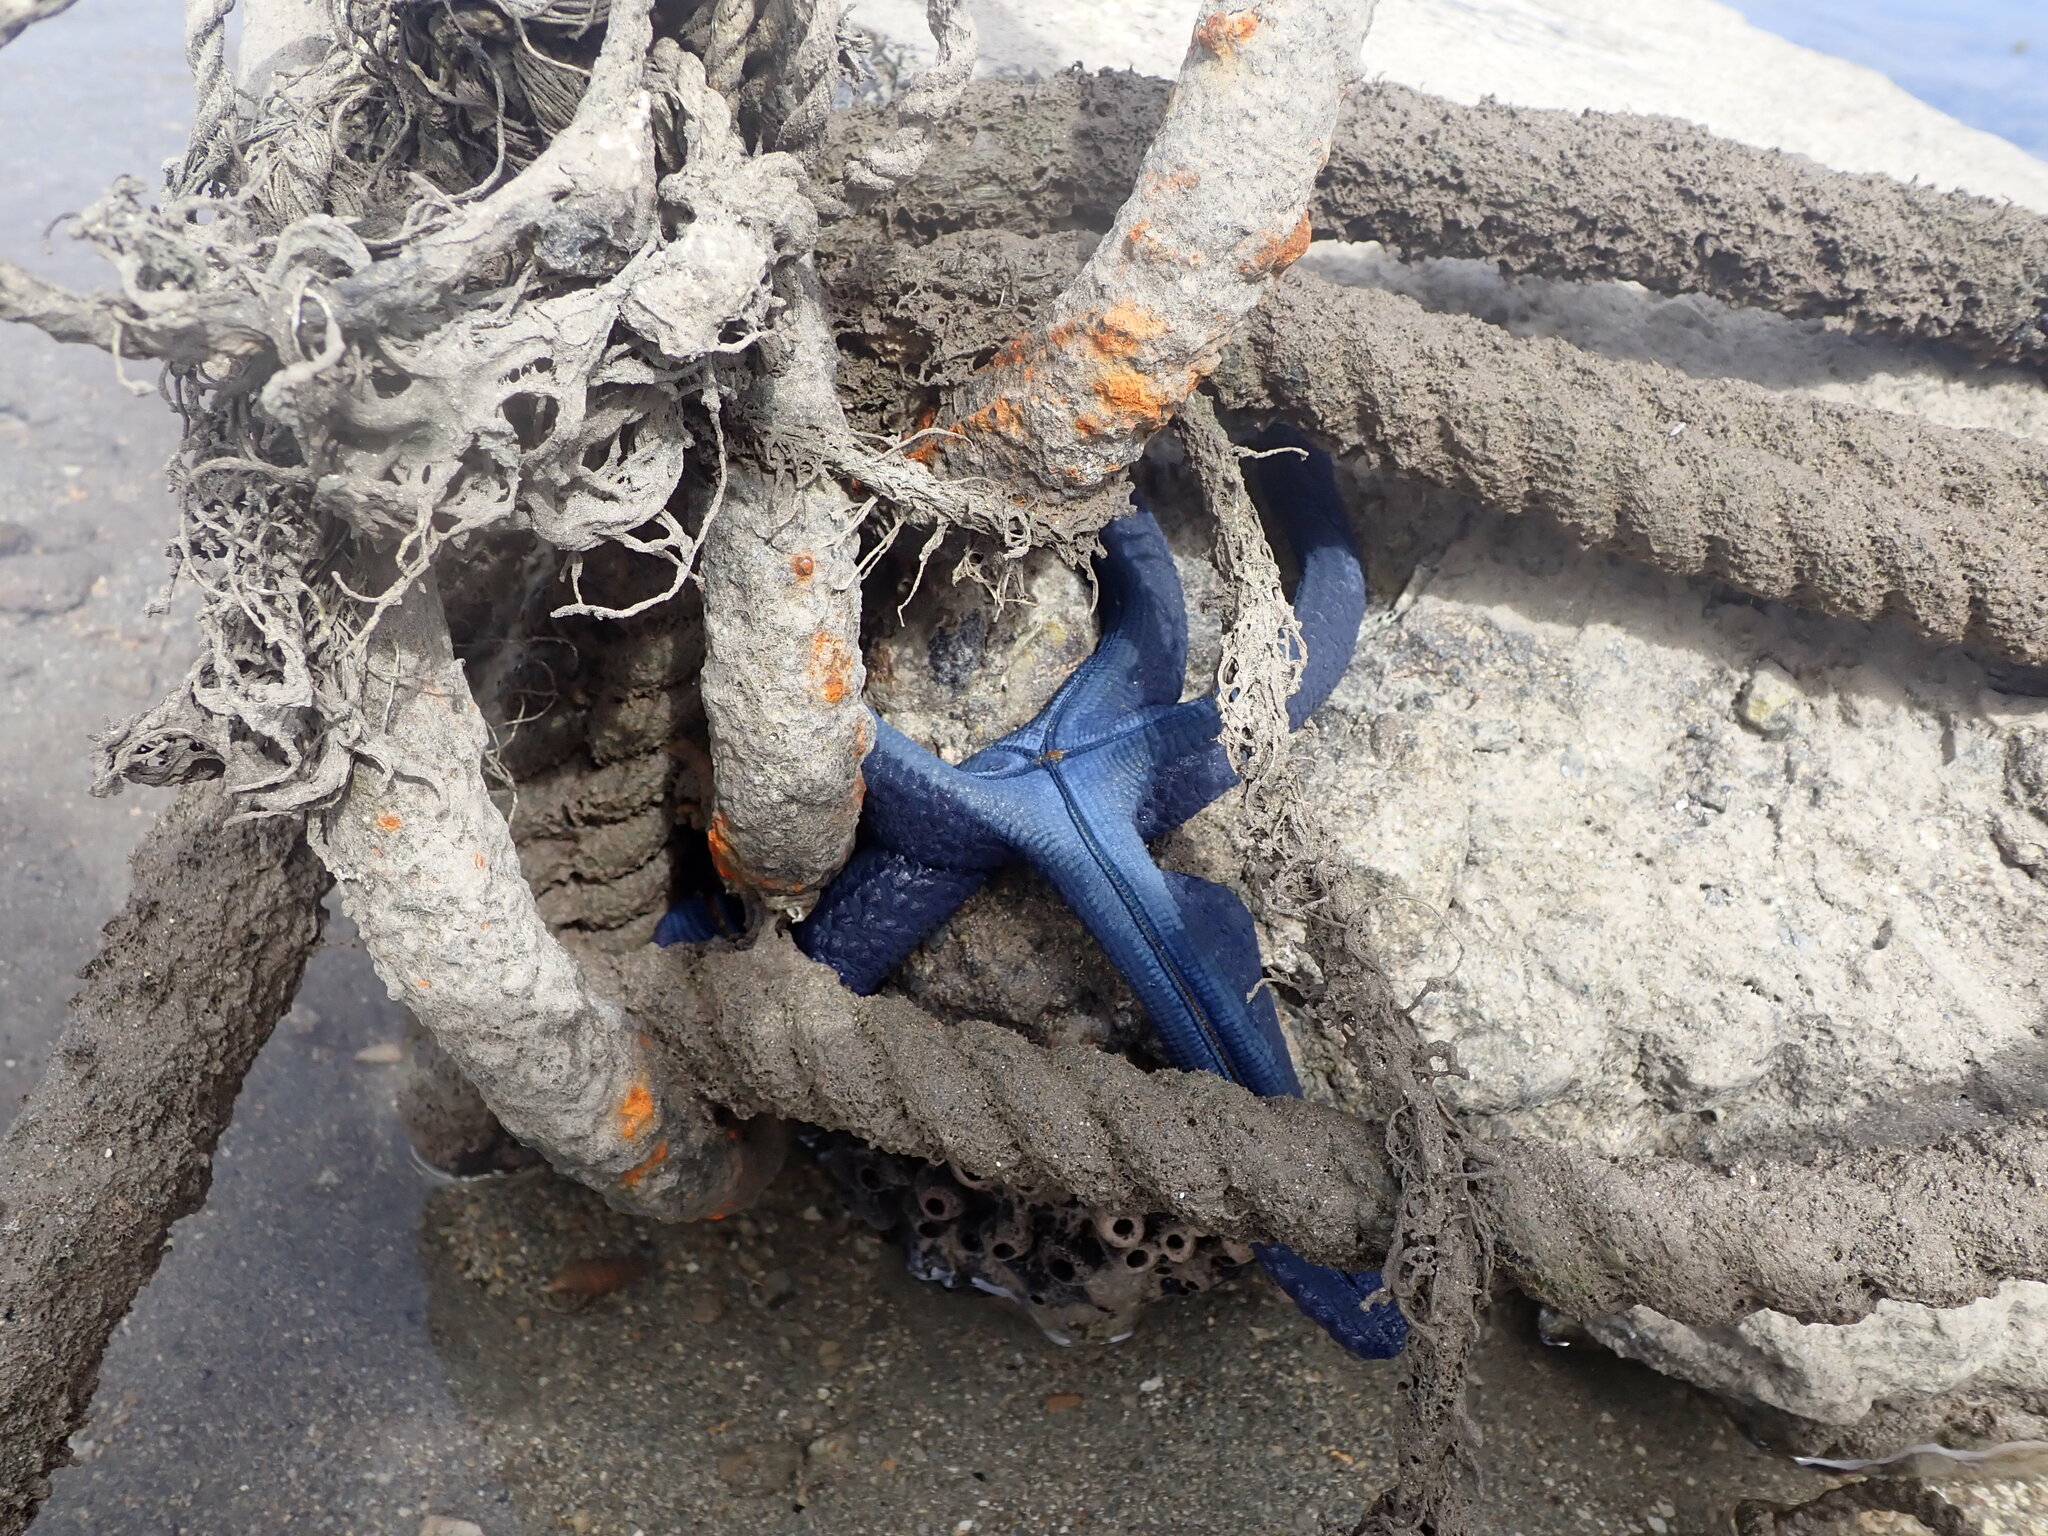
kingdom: Animalia
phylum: Echinodermata
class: Asteroidea
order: Valvatida
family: Ophidiasteridae
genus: Linckia
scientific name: Linckia laevigata
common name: Azure sea star
